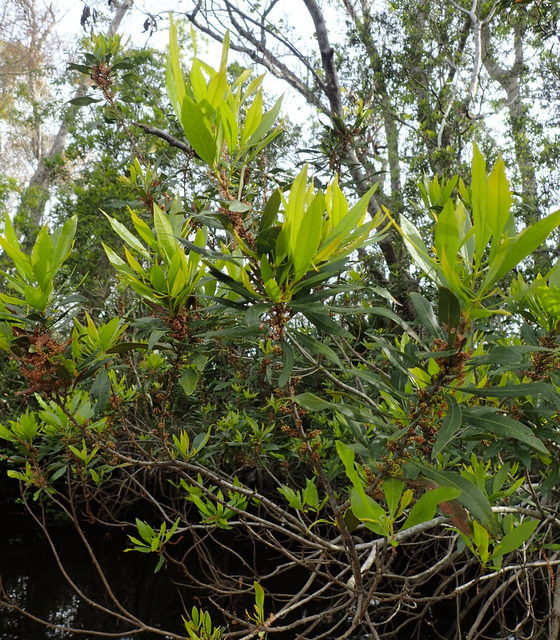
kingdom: Plantae
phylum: Tracheophyta
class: Magnoliopsida
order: Fagales
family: Myricaceae
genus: Morella
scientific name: Morella cerifera
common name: Wax myrtle
